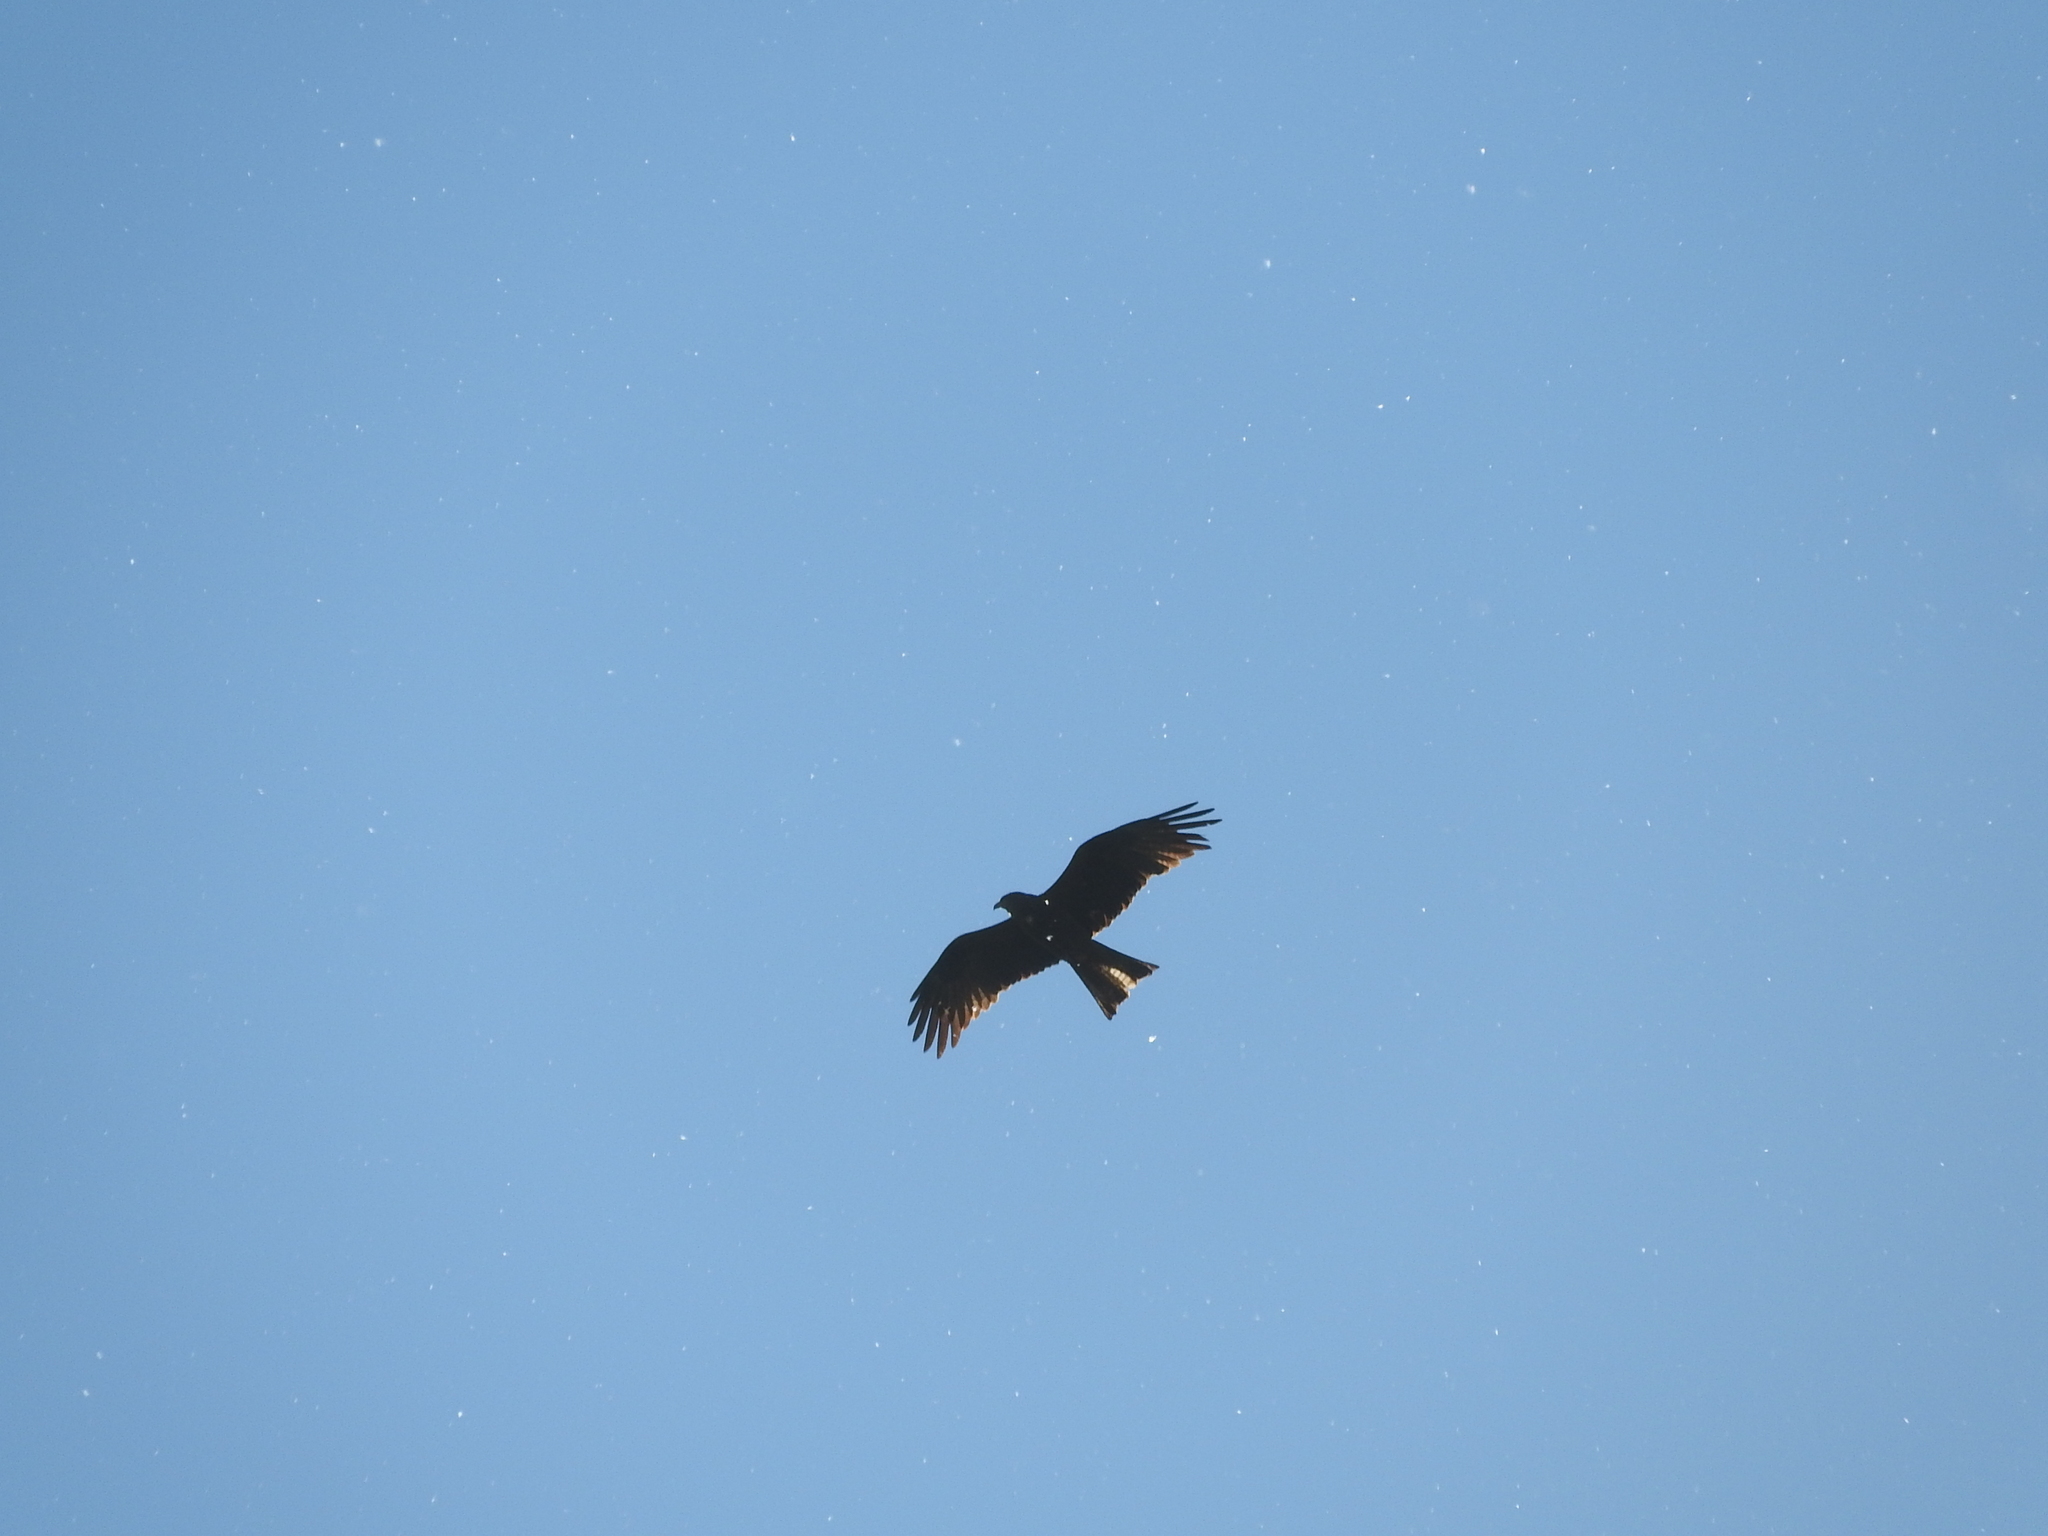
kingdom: Animalia
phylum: Chordata
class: Aves
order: Accipitriformes
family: Accipitridae
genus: Milvus
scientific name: Milvus migrans
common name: Black kite
